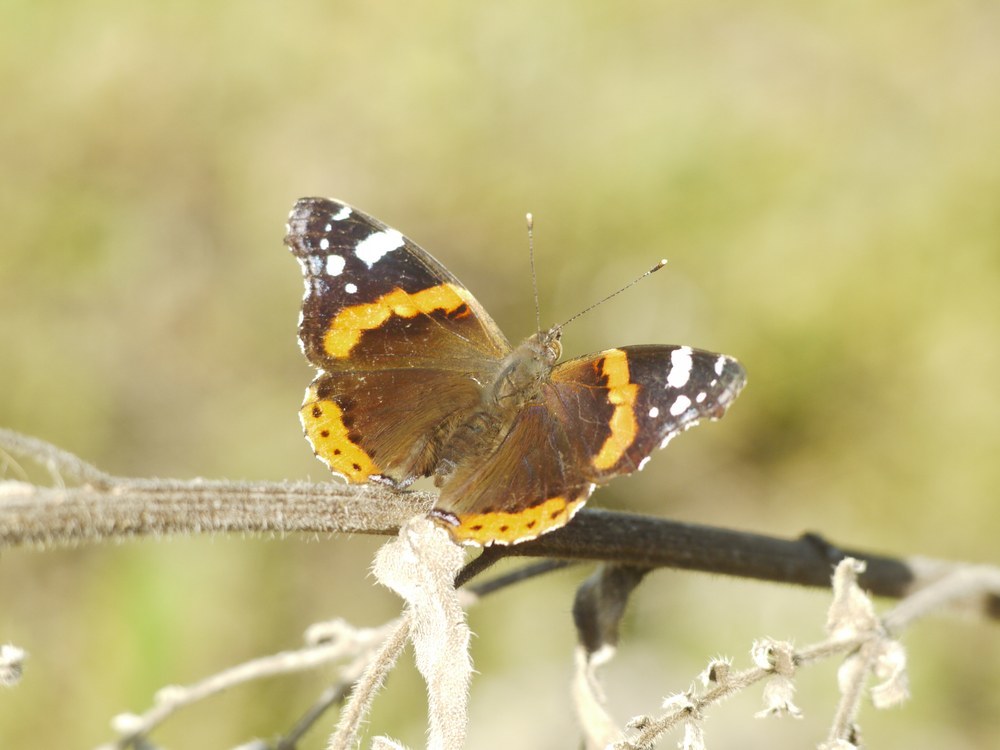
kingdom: Animalia
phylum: Arthropoda
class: Insecta
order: Lepidoptera
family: Nymphalidae
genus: Vanessa
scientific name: Vanessa atalanta
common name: Red admiral
